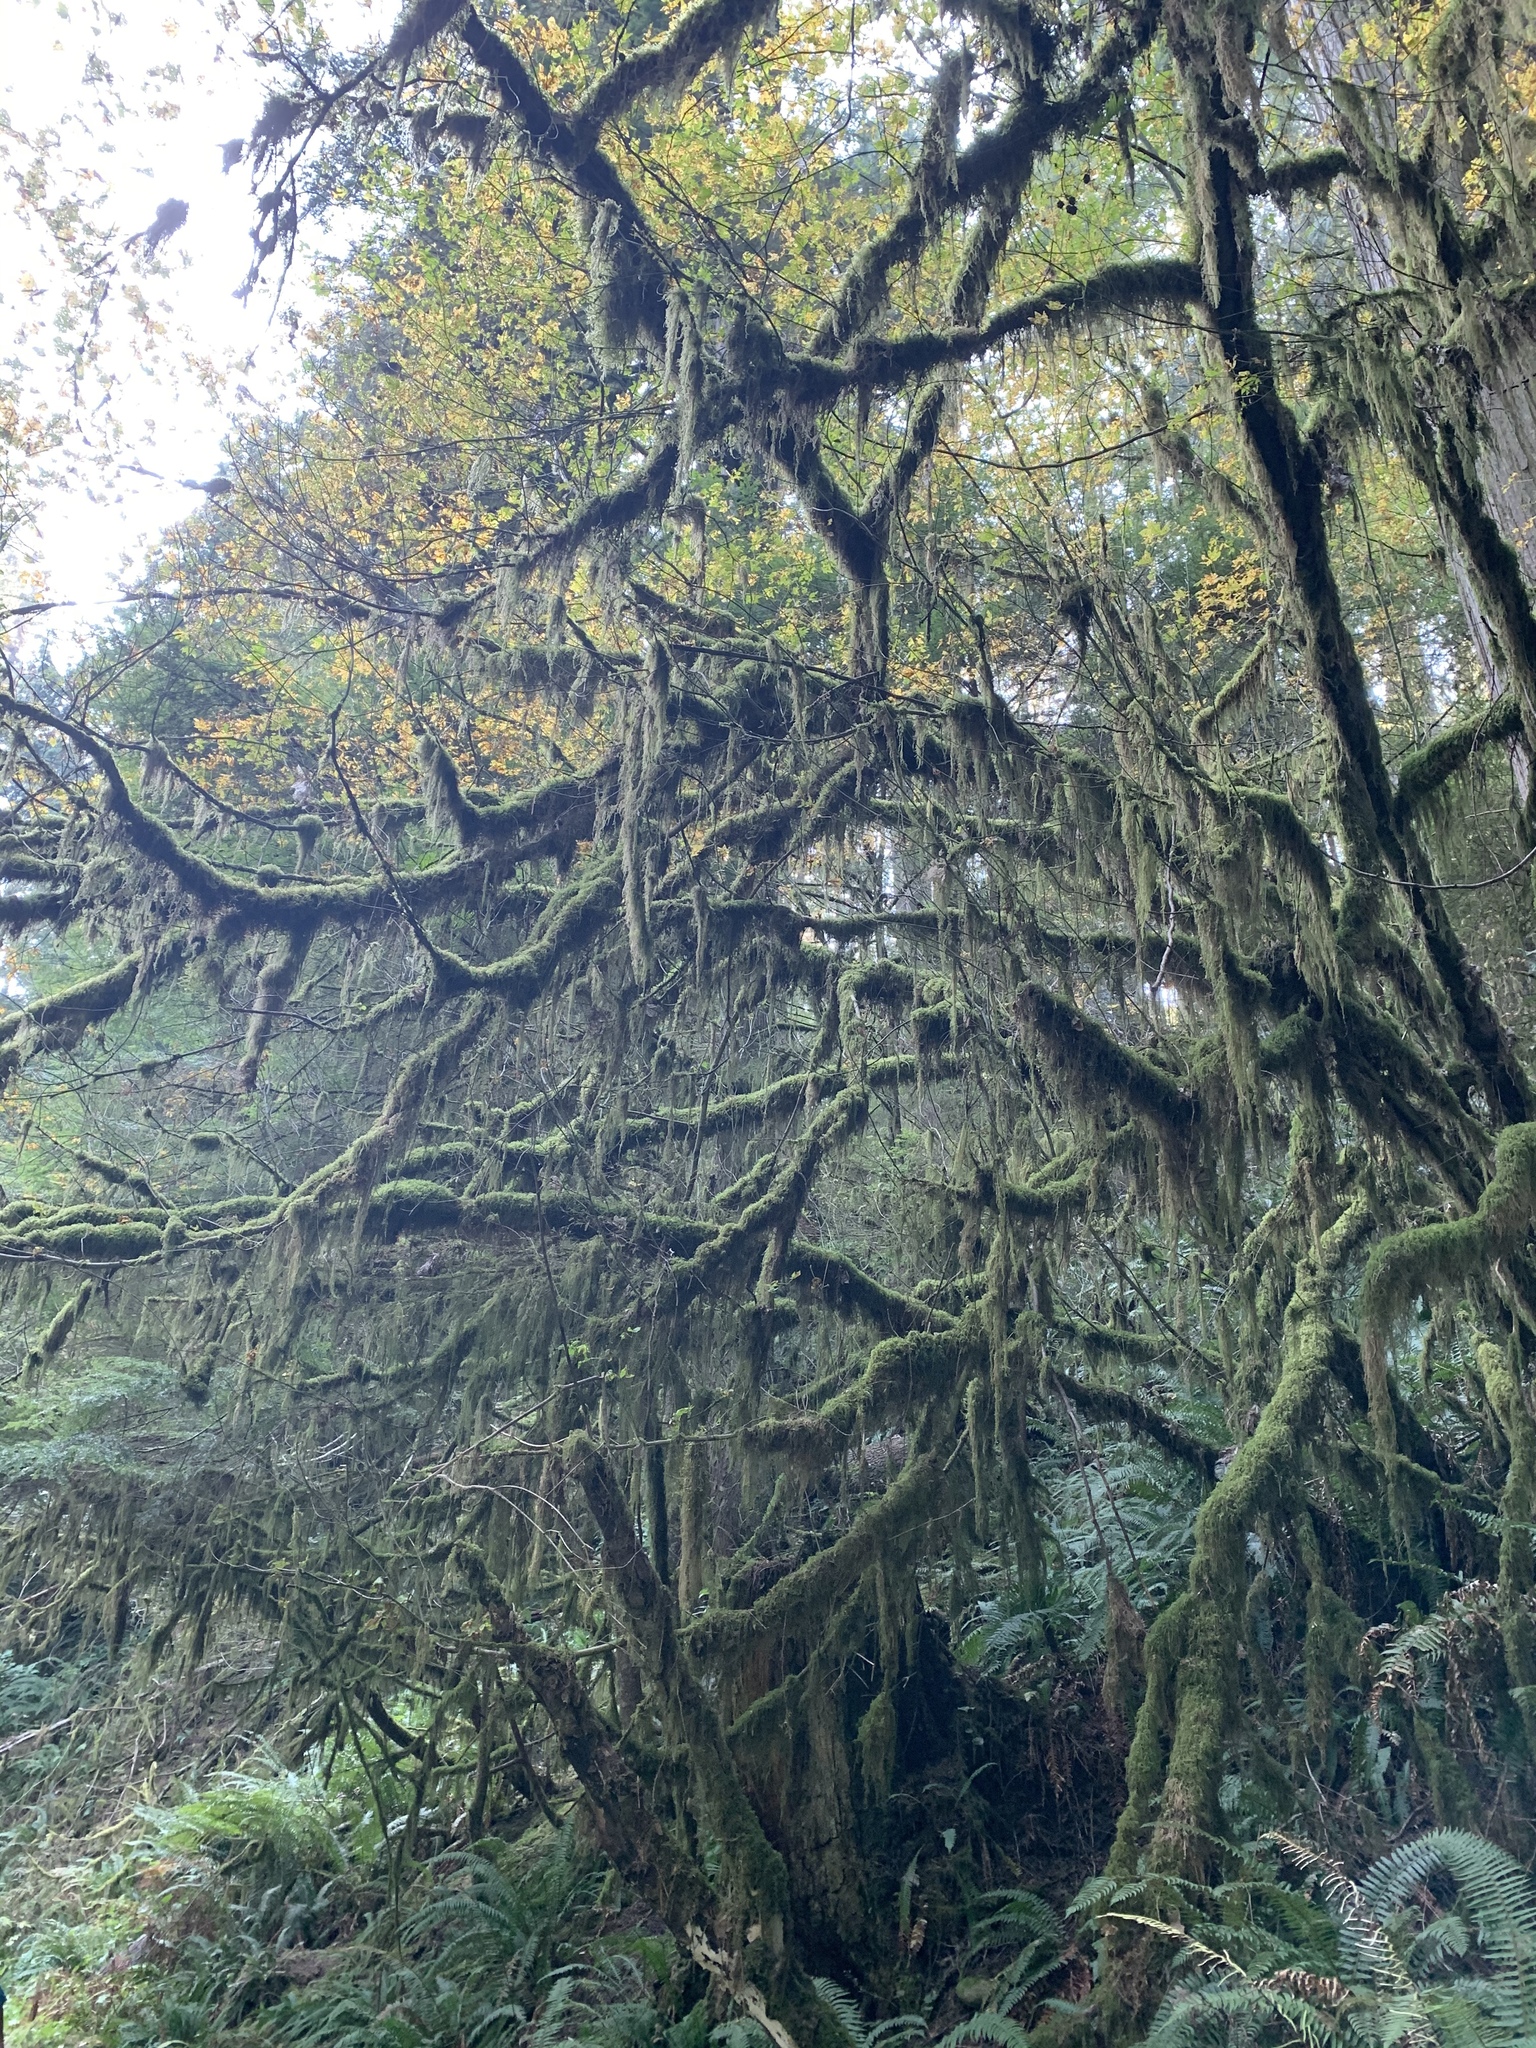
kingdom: Plantae
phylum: Bryophyta
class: Bryopsida
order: Hypnales
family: Lembophyllaceae
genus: Pseudisothecium
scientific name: Pseudisothecium stoloniferum
